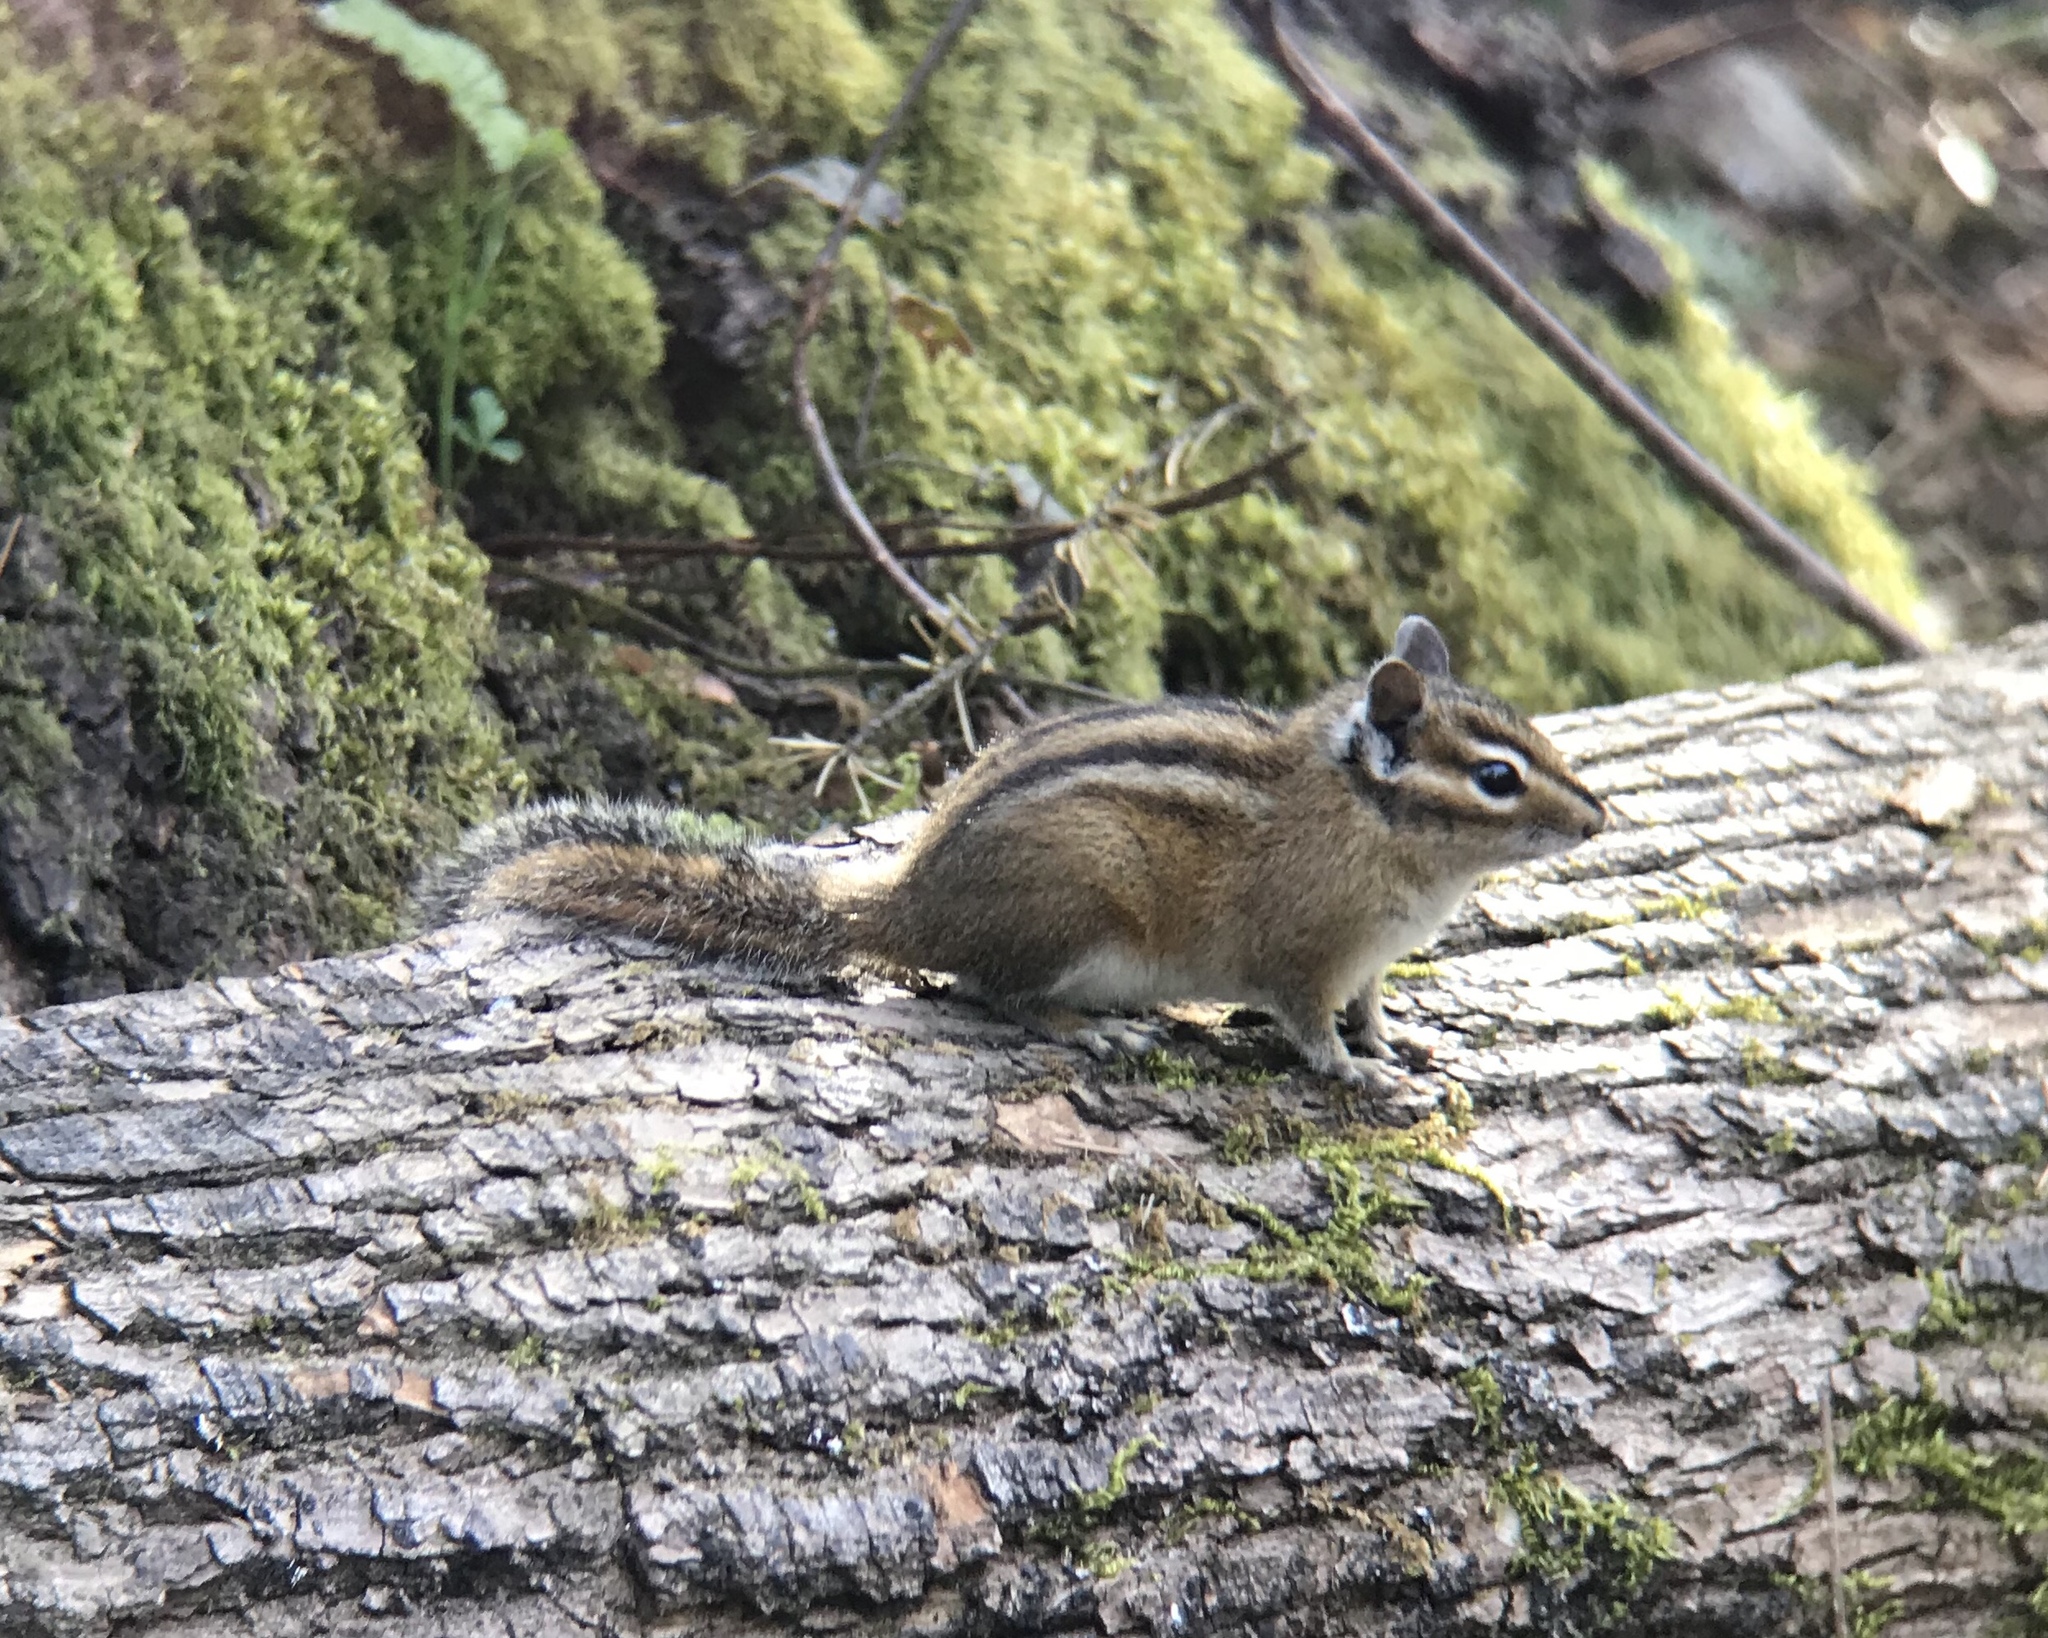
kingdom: Animalia
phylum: Chordata
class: Mammalia
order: Rodentia
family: Sciuridae
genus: Tamias
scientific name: Tamias townsendii
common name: Townsend's chipmunk
